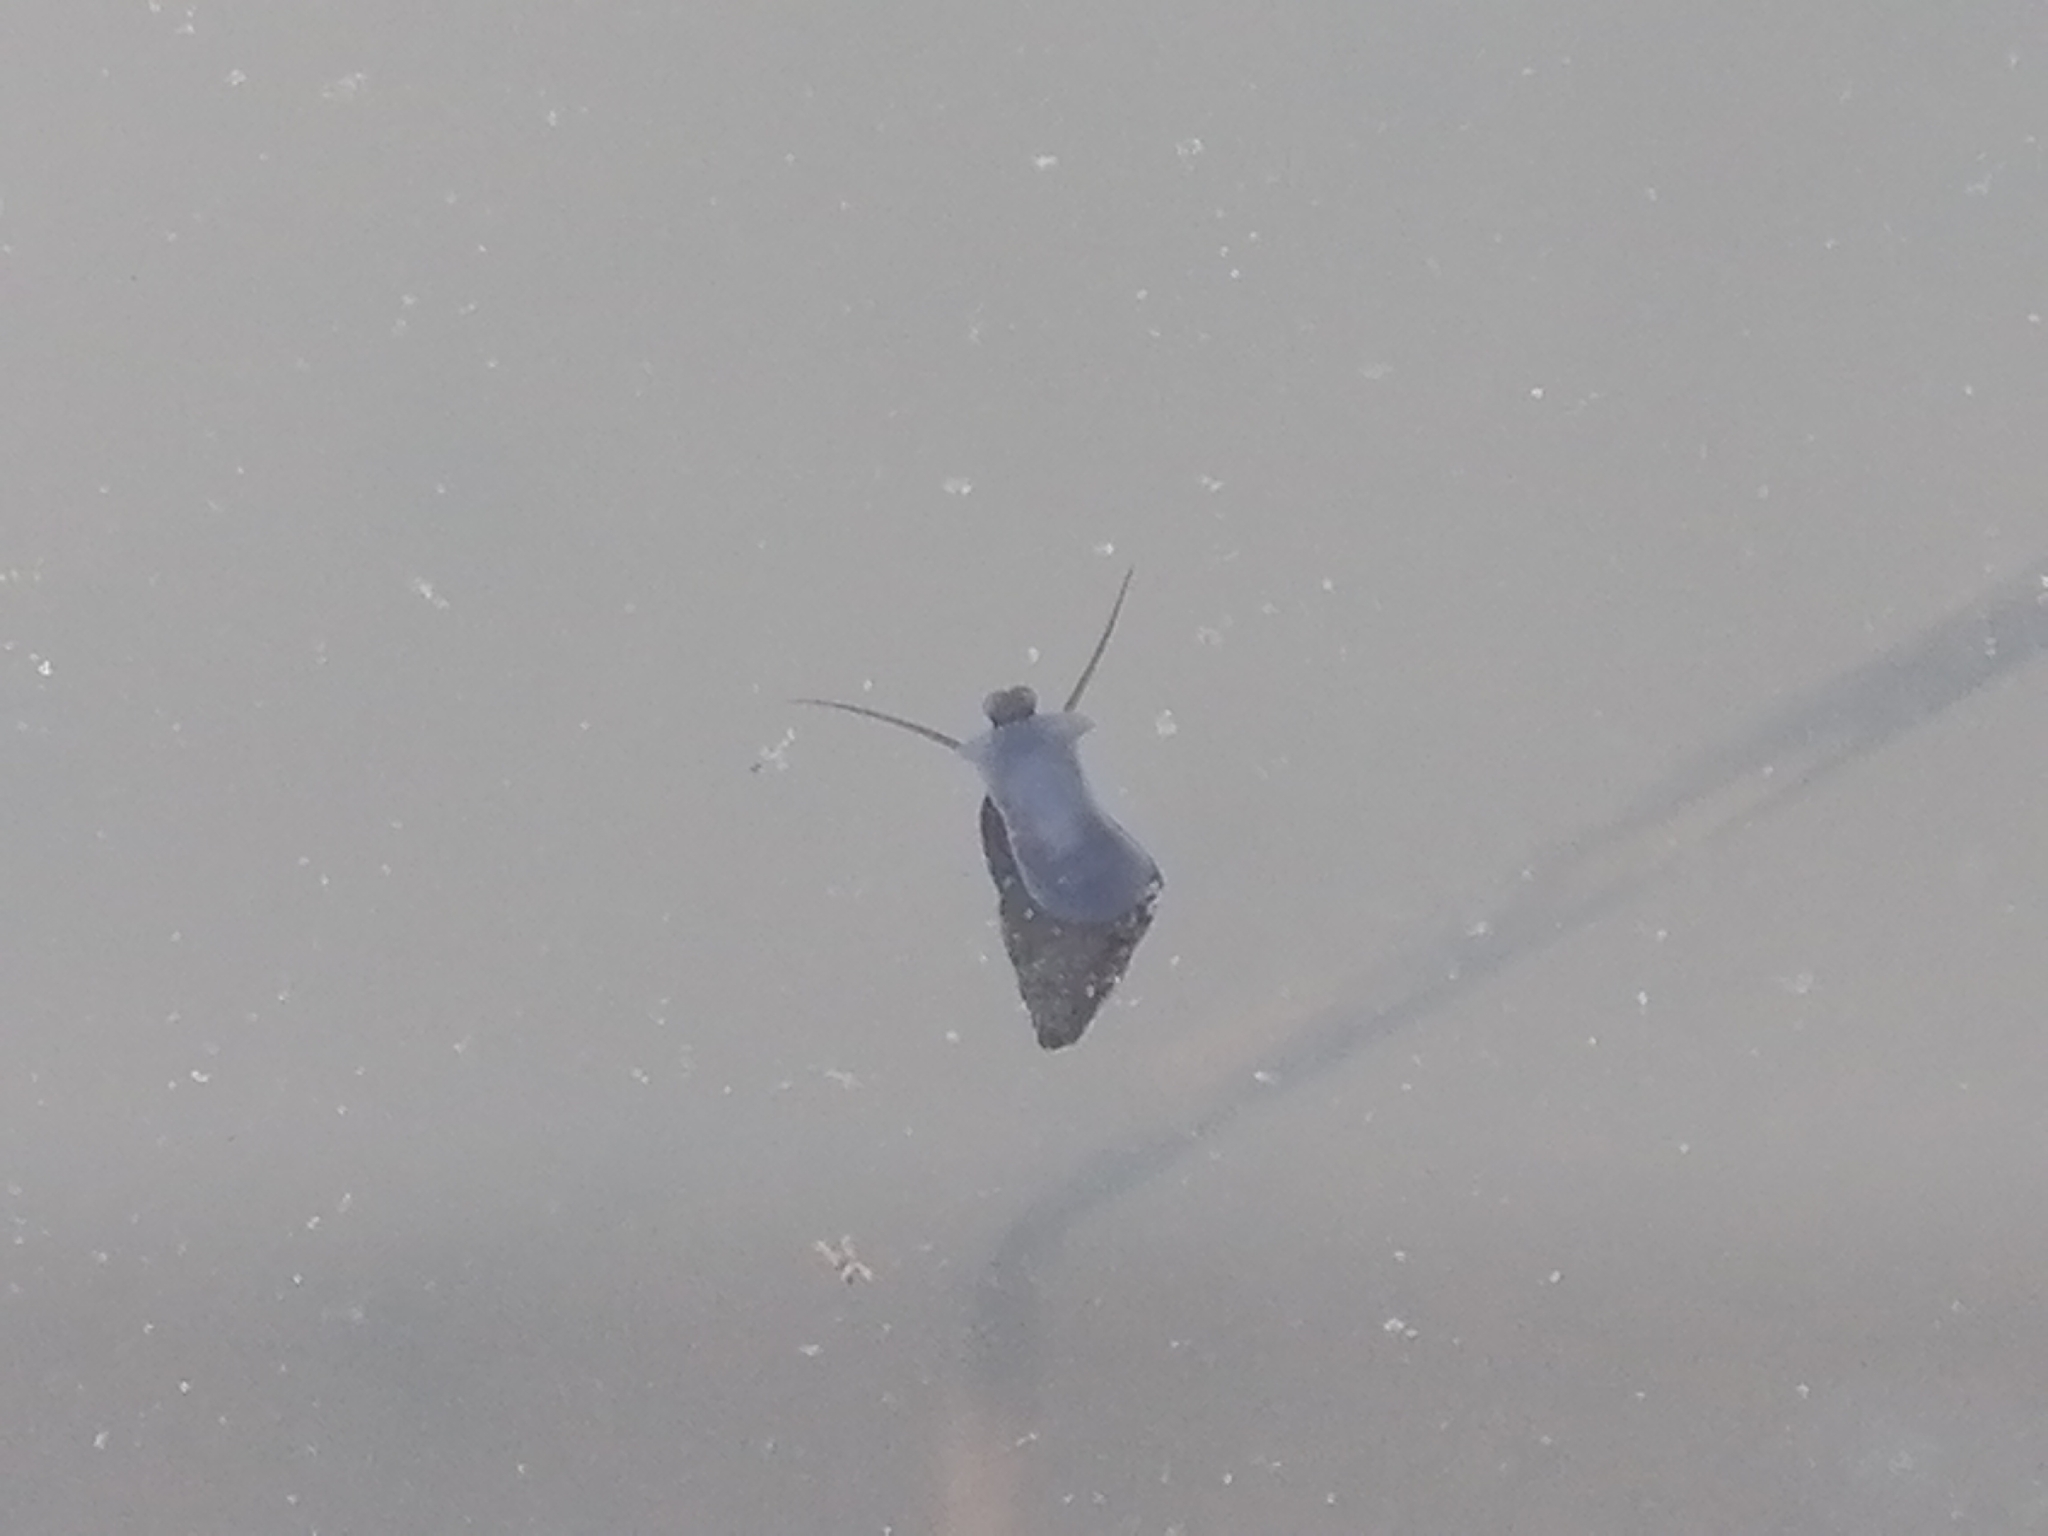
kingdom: Animalia
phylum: Mollusca
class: Gastropoda
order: Littorinimorpha
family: Tateidae
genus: Potamopyrgus
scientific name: Potamopyrgus antipodarum
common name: Jenkins' spire snail
